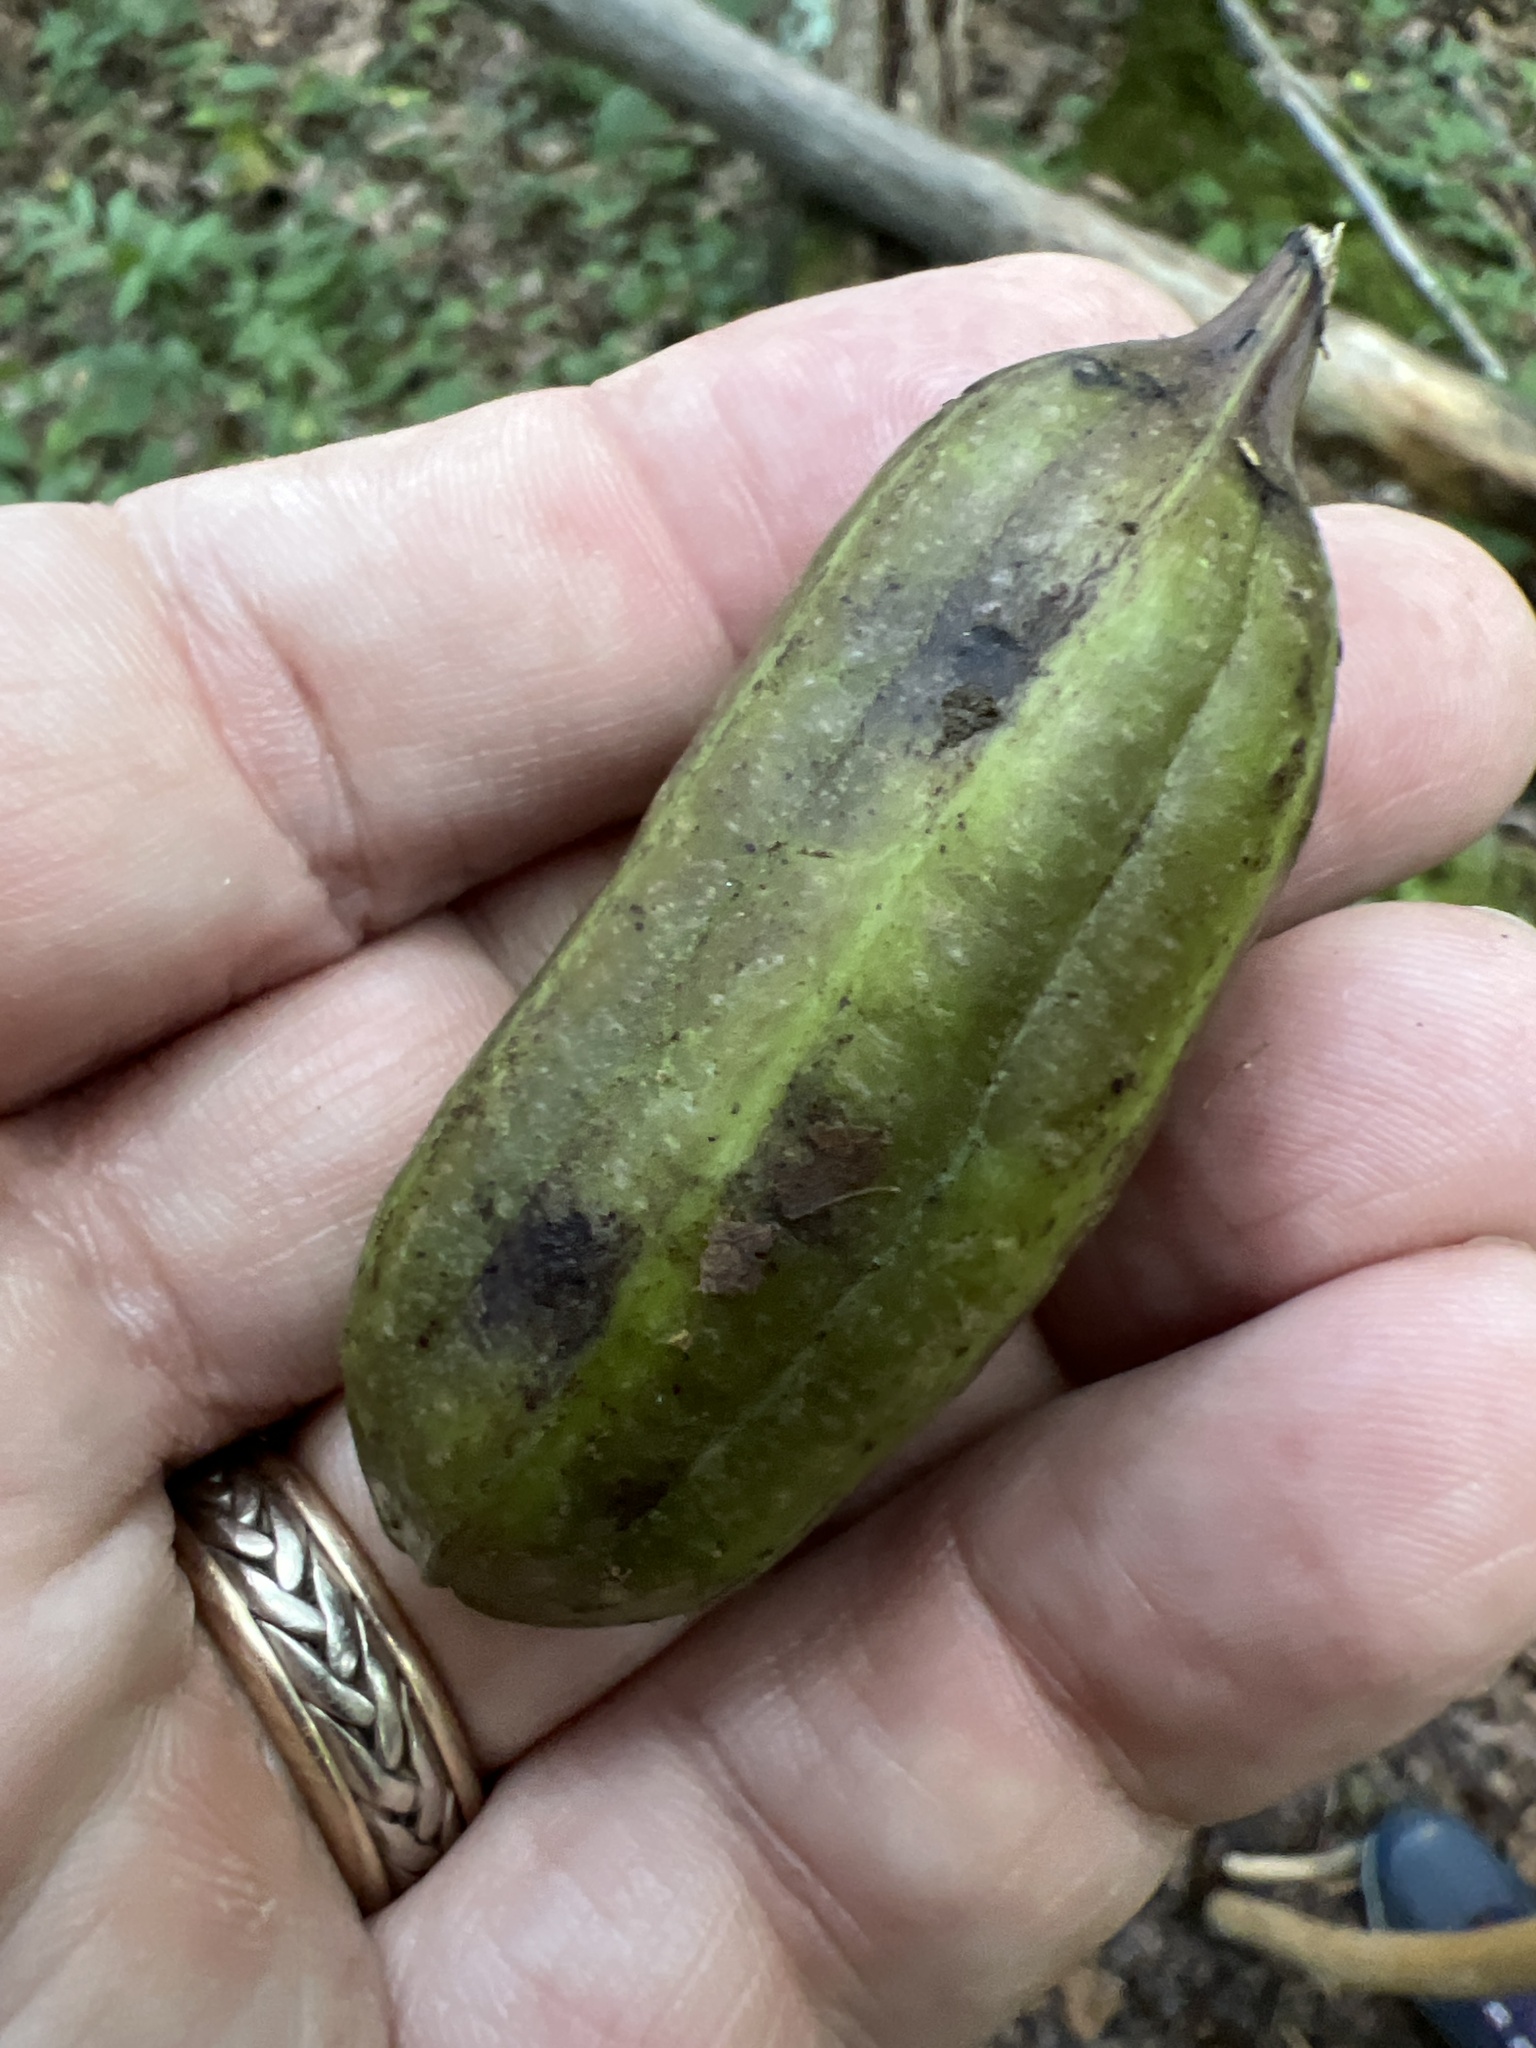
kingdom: Plantae
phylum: Tracheophyta
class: Magnoliopsida
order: Piperales
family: Aristolochiaceae
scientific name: Aristolochiaceae
